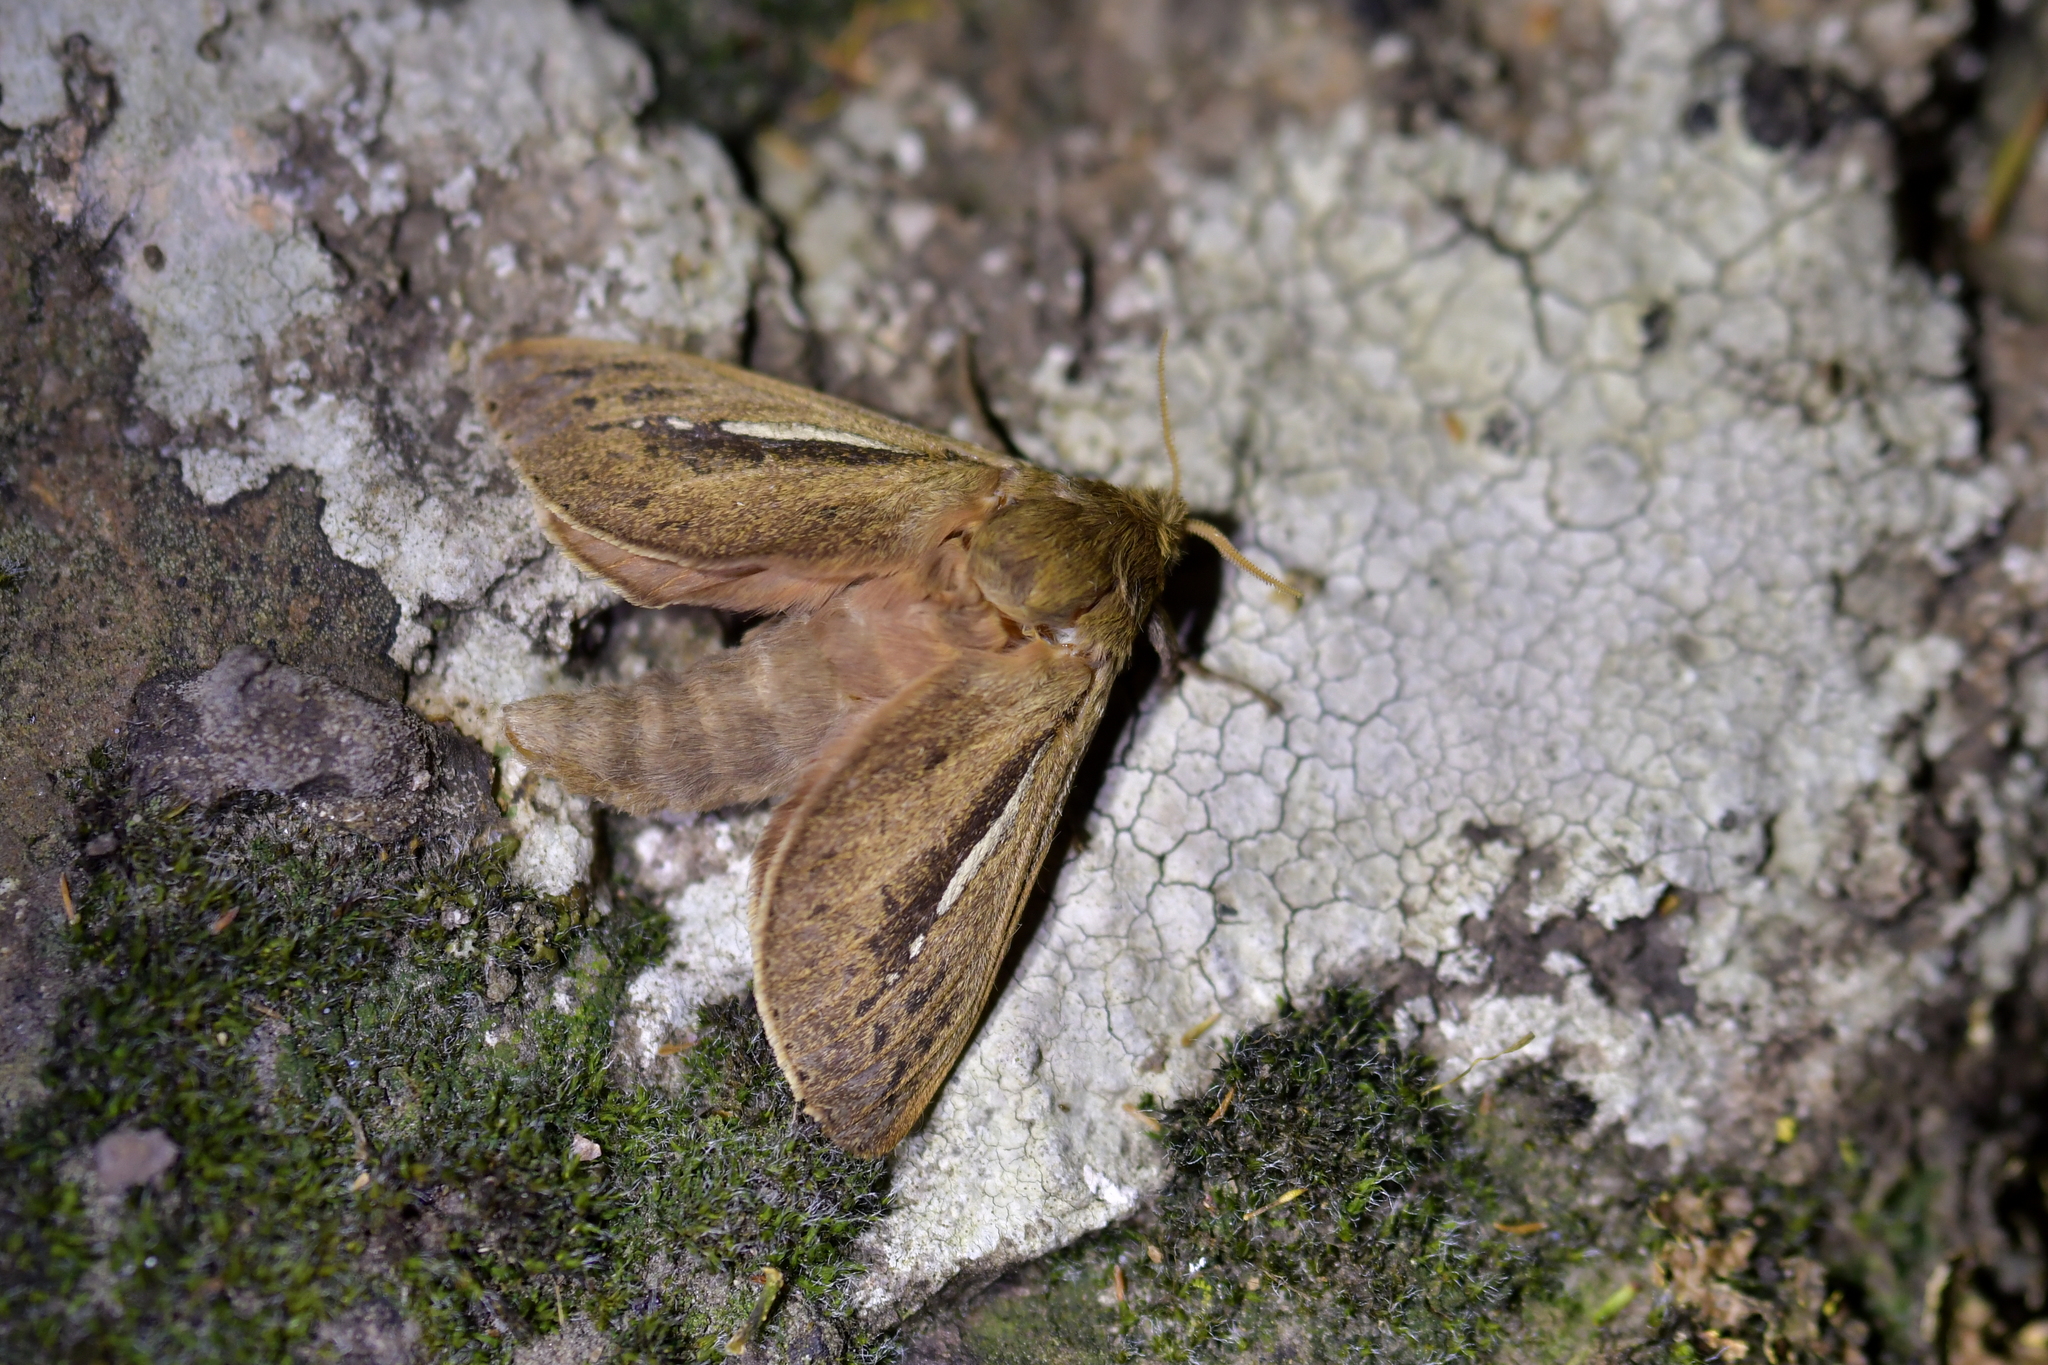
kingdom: Animalia
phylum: Arthropoda
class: Insecta
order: Lepidoptera
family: Hepialidae
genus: Wiseana
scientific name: Wiseana umbraculatus
